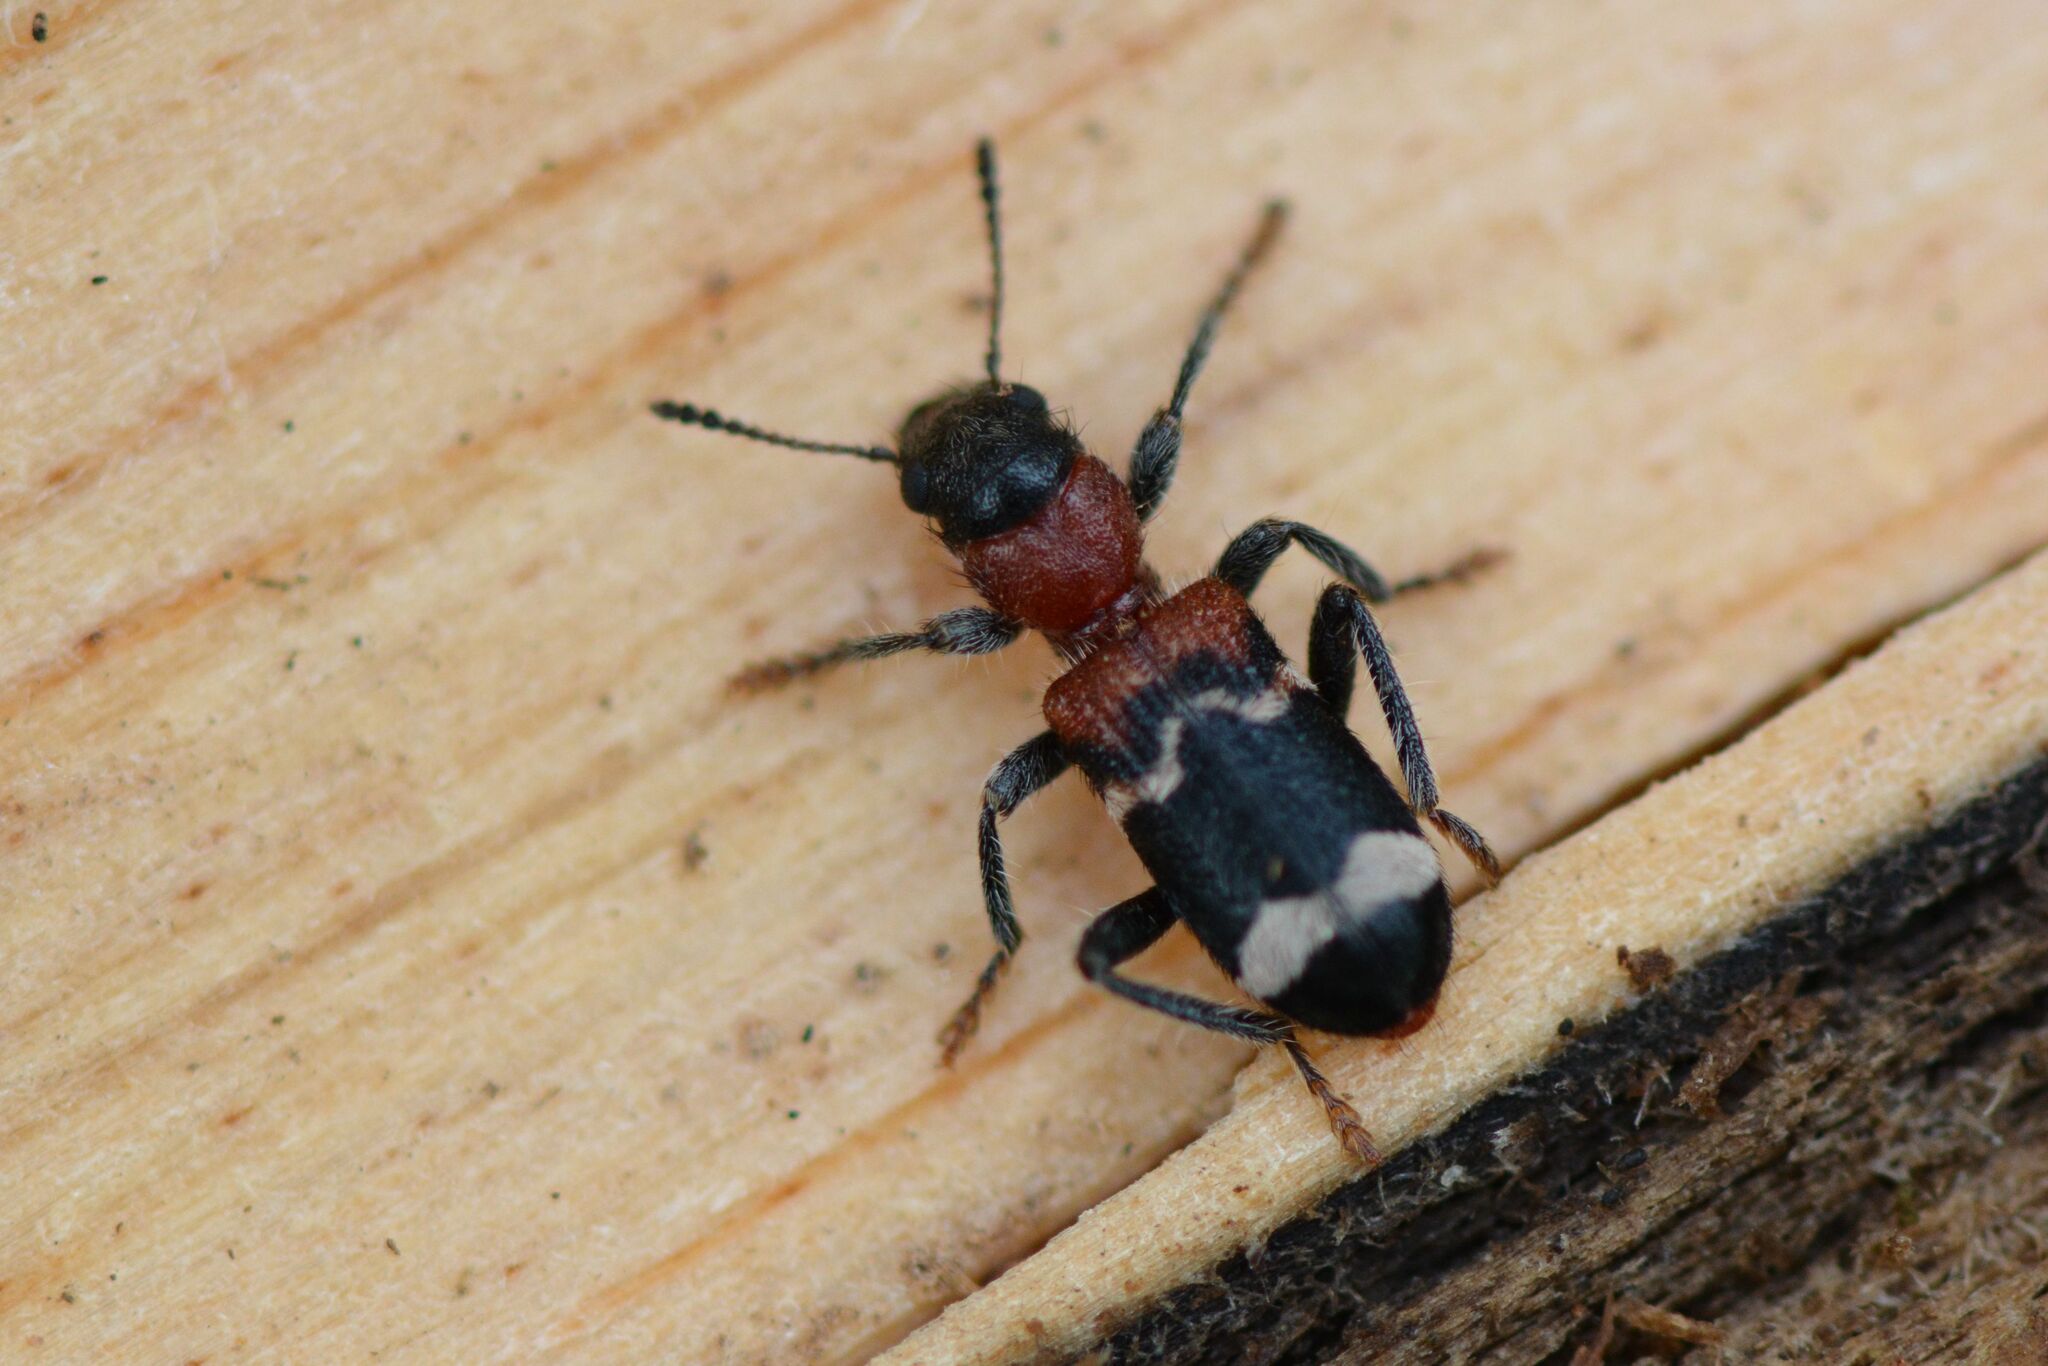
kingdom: Animalia
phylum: Arthropoda
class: Insecta
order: Coleoptera
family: Cleridae
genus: Thanasimus
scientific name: Thanasimus formicarius
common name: Ant beetle
